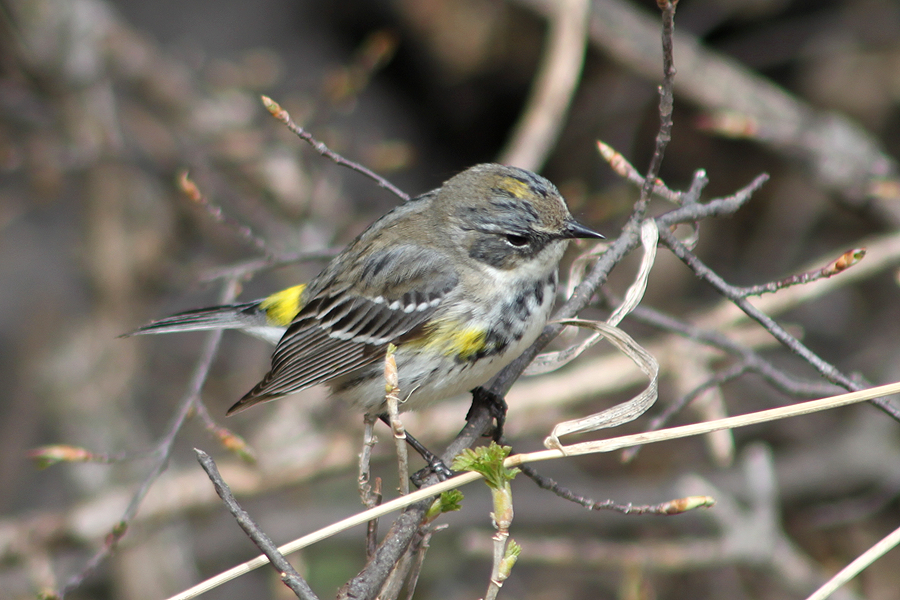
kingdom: Animalia
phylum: Chordata
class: Aves
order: Passeriformes
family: Parulidae
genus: Setophaga
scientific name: Setophaga coronata
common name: Myrtle warbler
